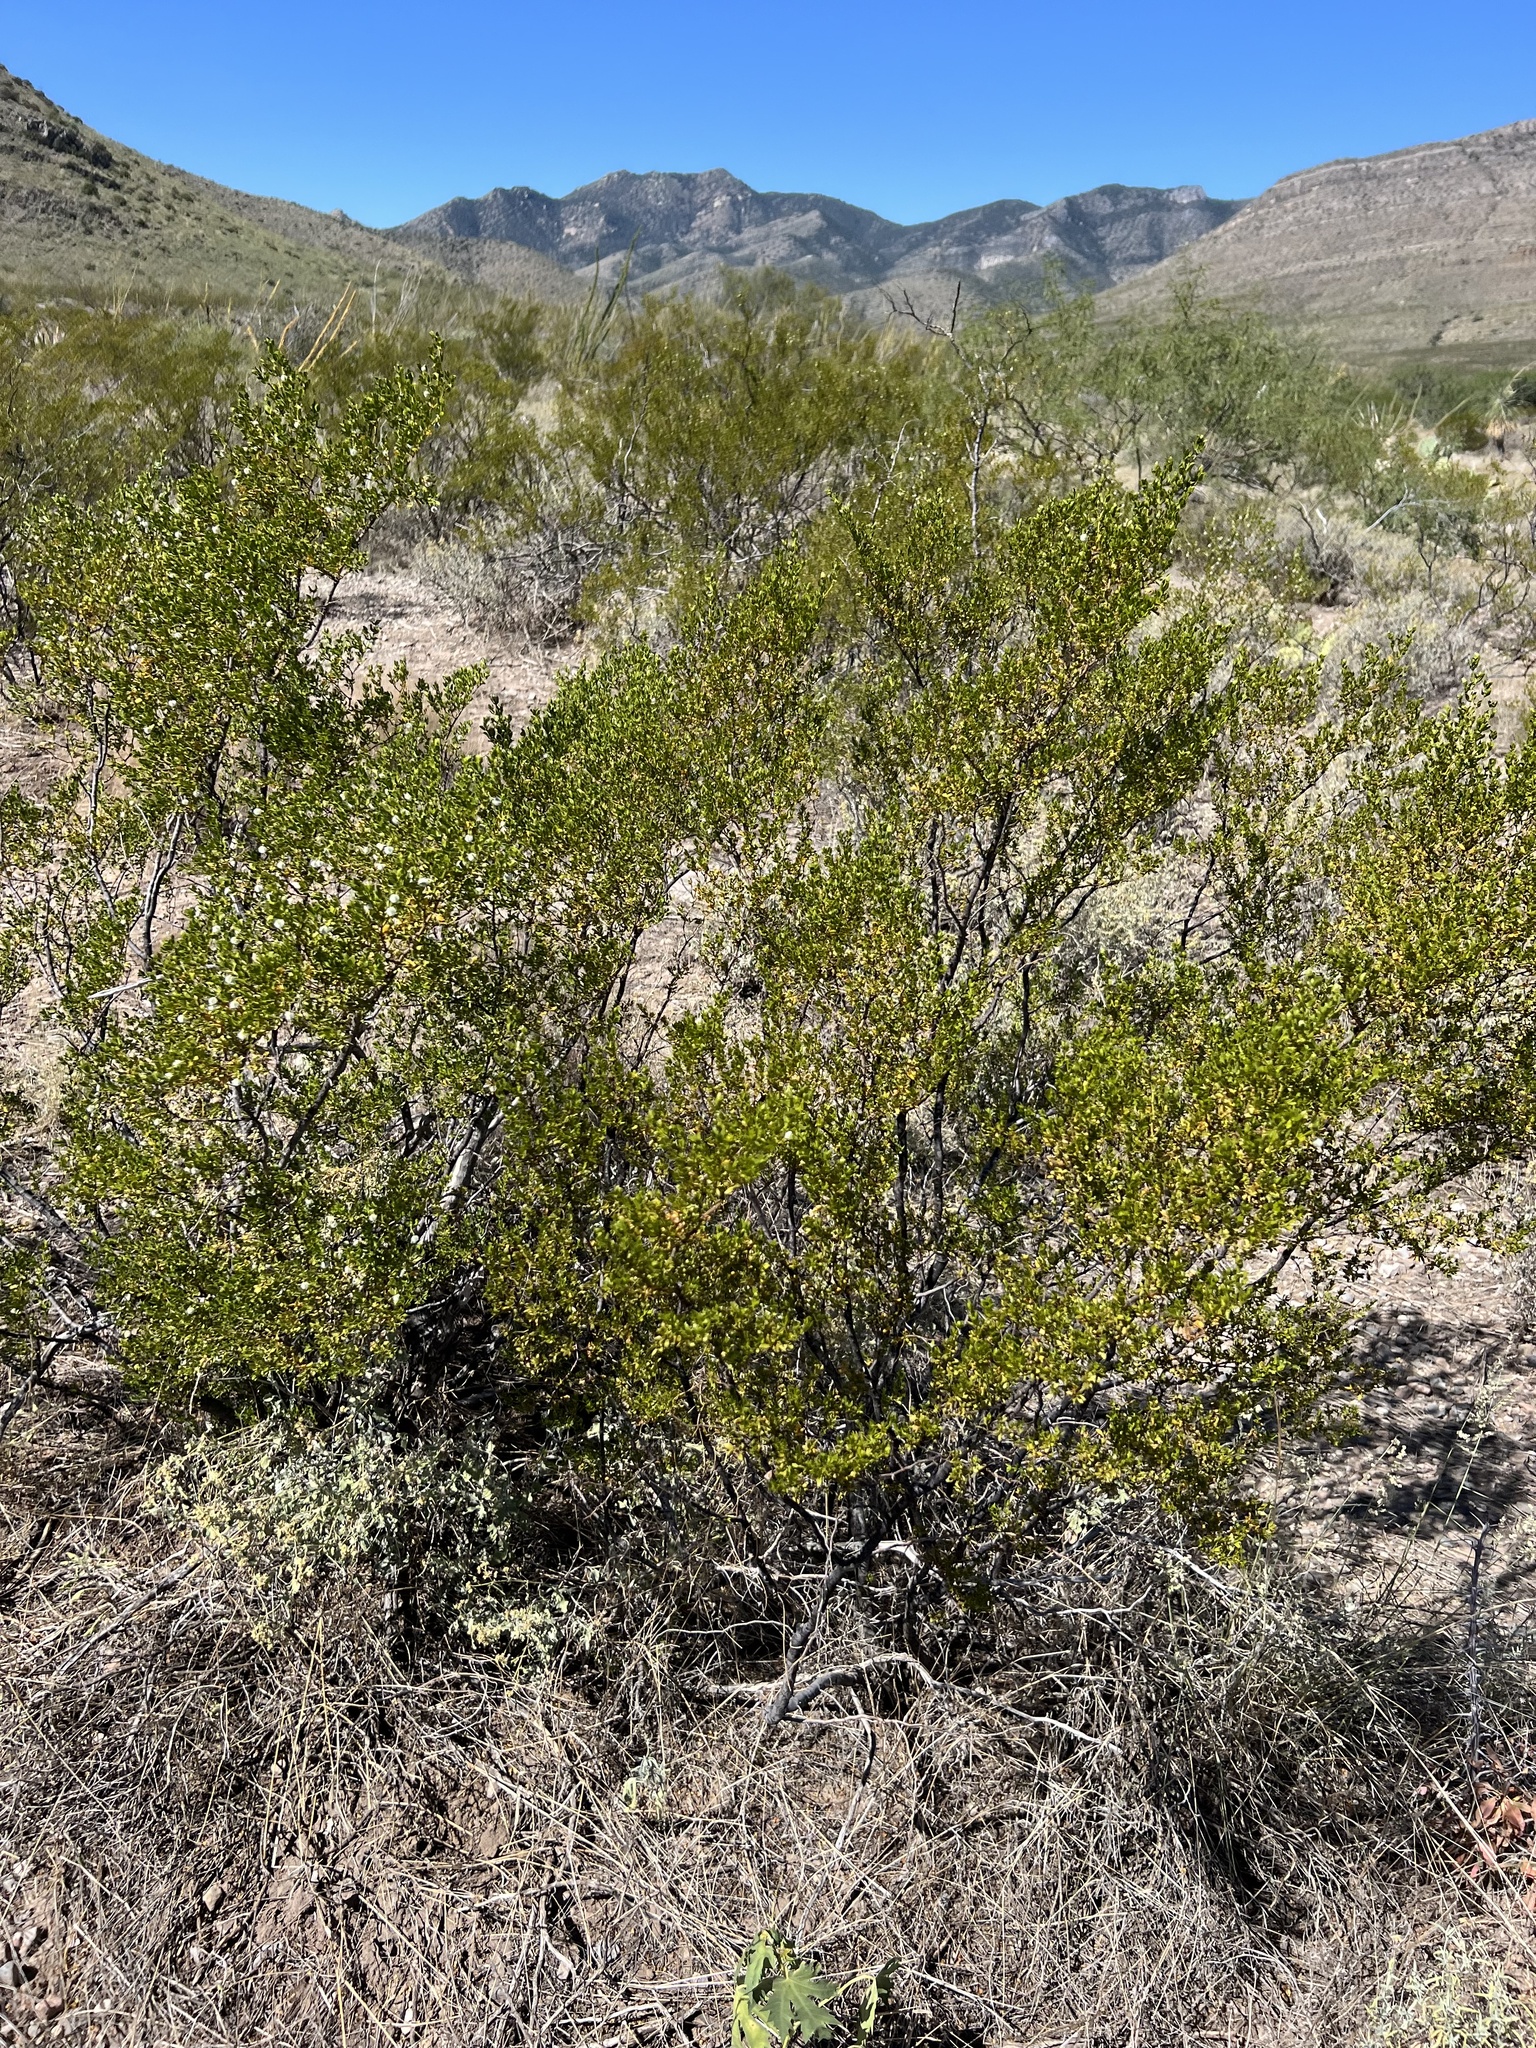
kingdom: Plantae
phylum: Tracheophyta
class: Magnoliopsida
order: Zygophyllales
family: Zygophyllaceae
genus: Larrea
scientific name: Larrea tridentata
